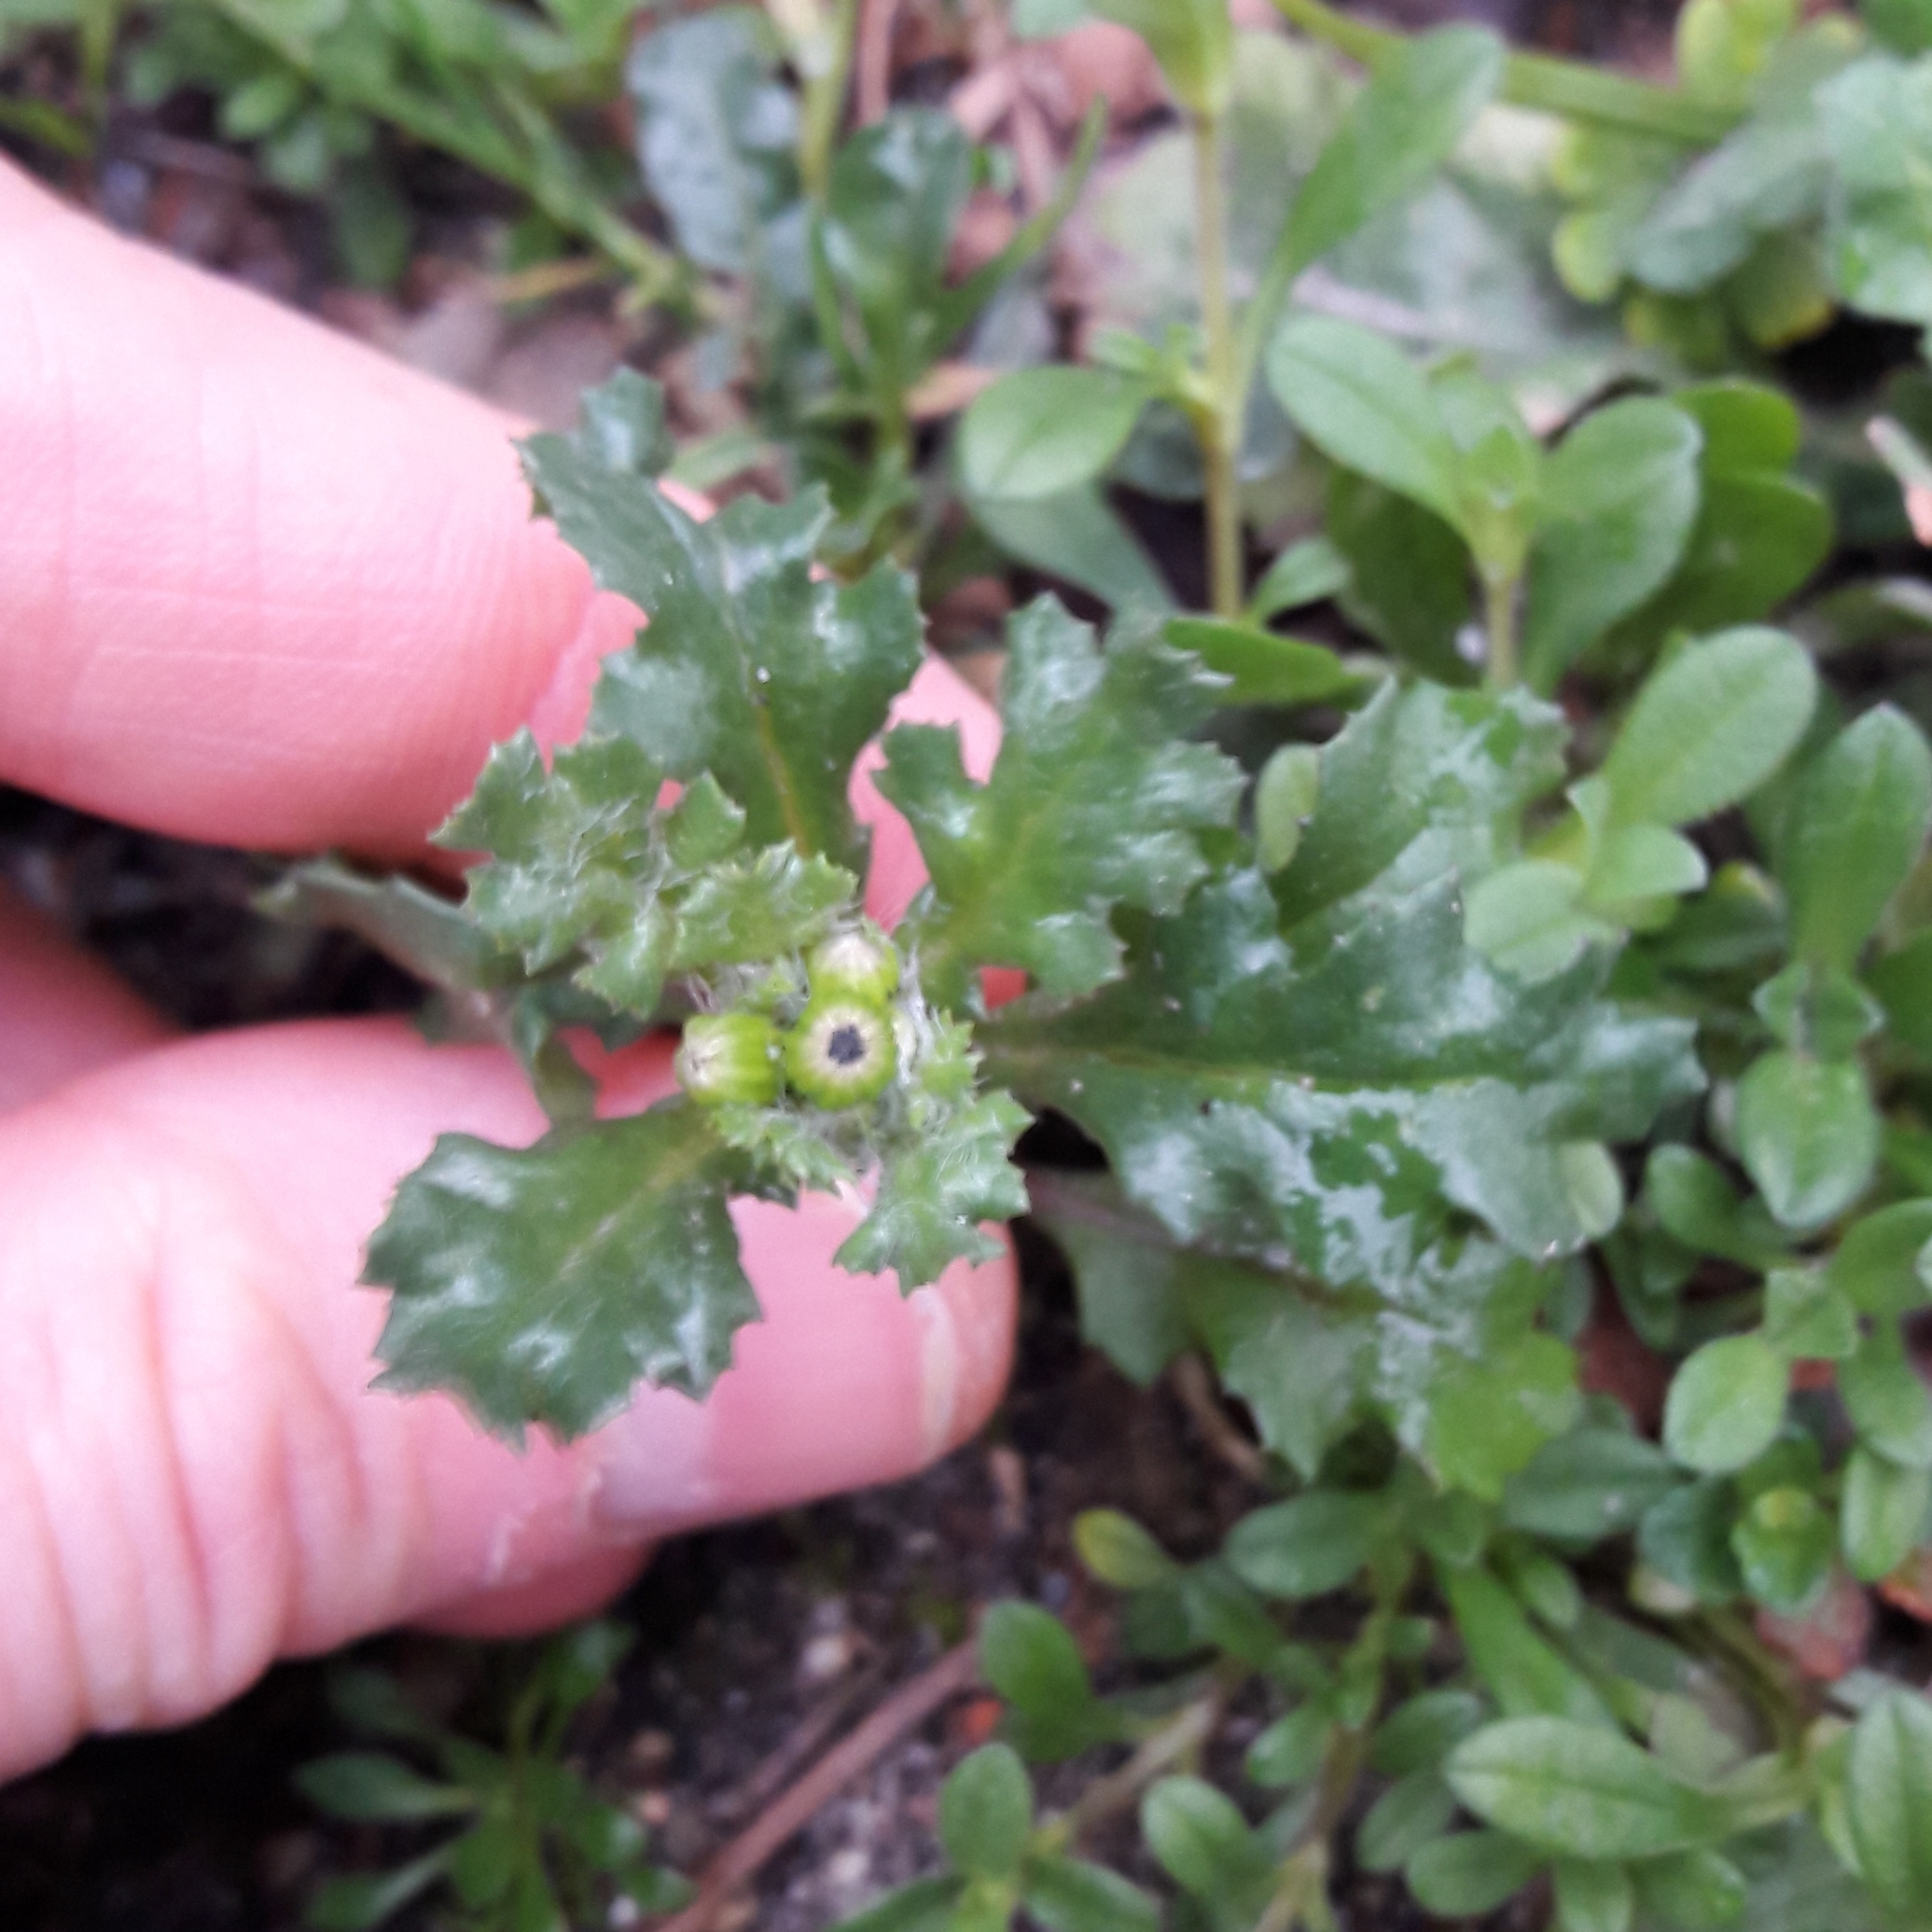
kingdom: Plantae
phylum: Tracheophyta
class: Magnoliopsida
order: Asterales
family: Asteraceae
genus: Senecio
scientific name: Senecio vulgaris
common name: Old-man-in-the-spring
